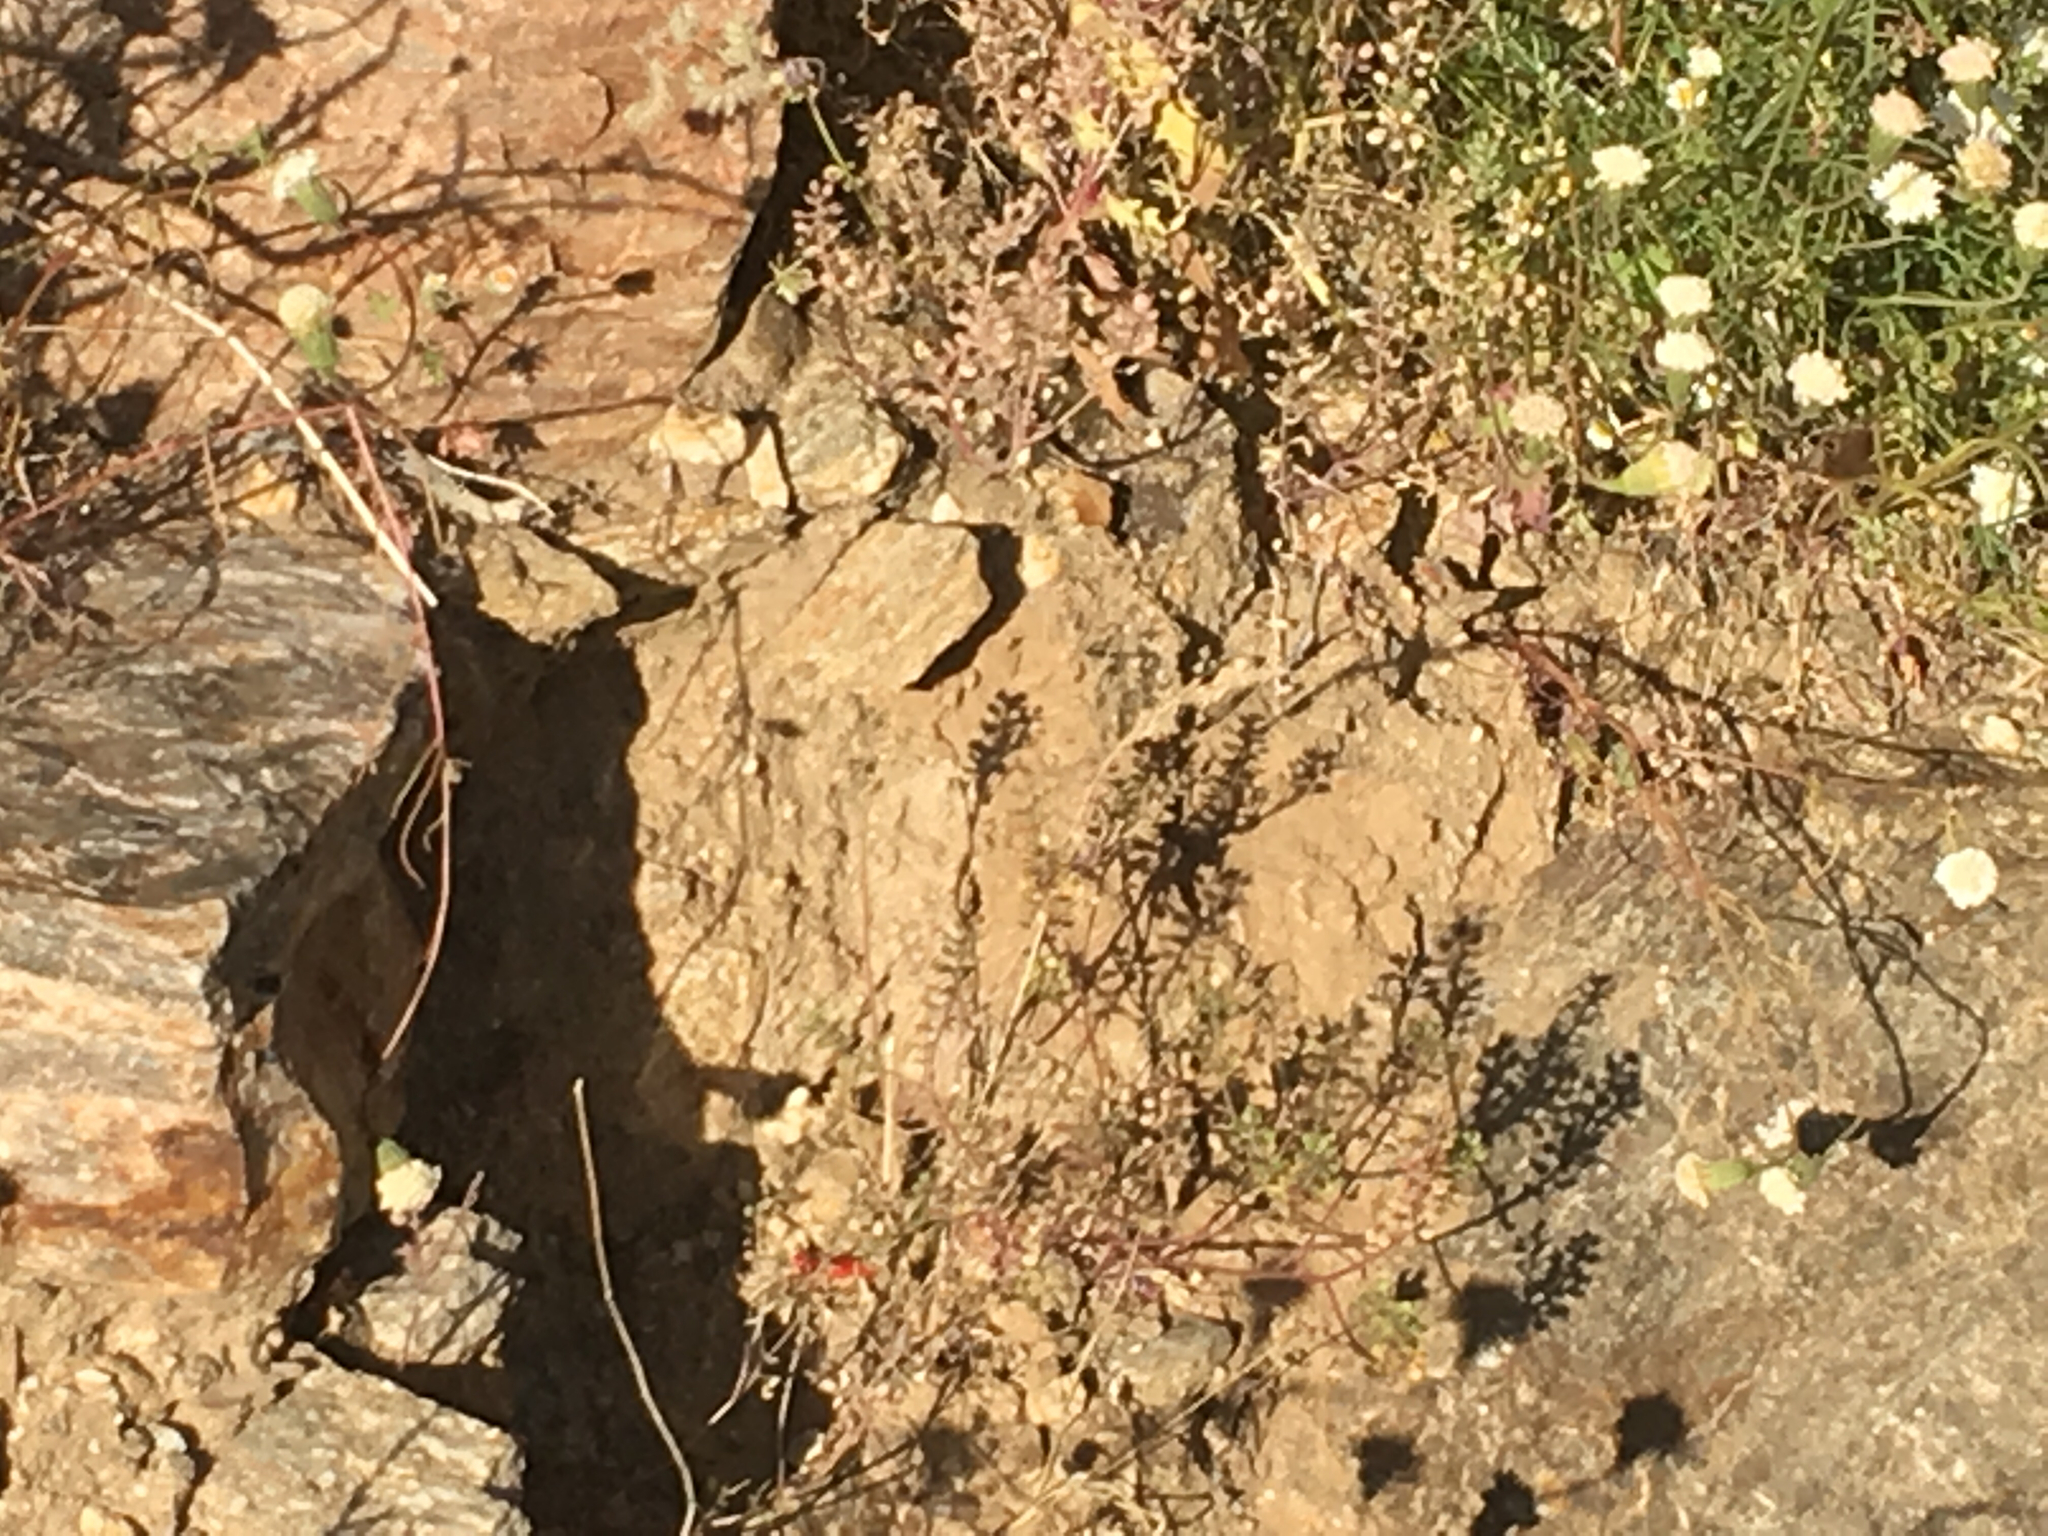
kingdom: Animalia
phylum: Chordata
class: Squamata
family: Phrynosomatidae
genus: Uta
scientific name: Uta stansburiana
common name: Side-blotched lizard
